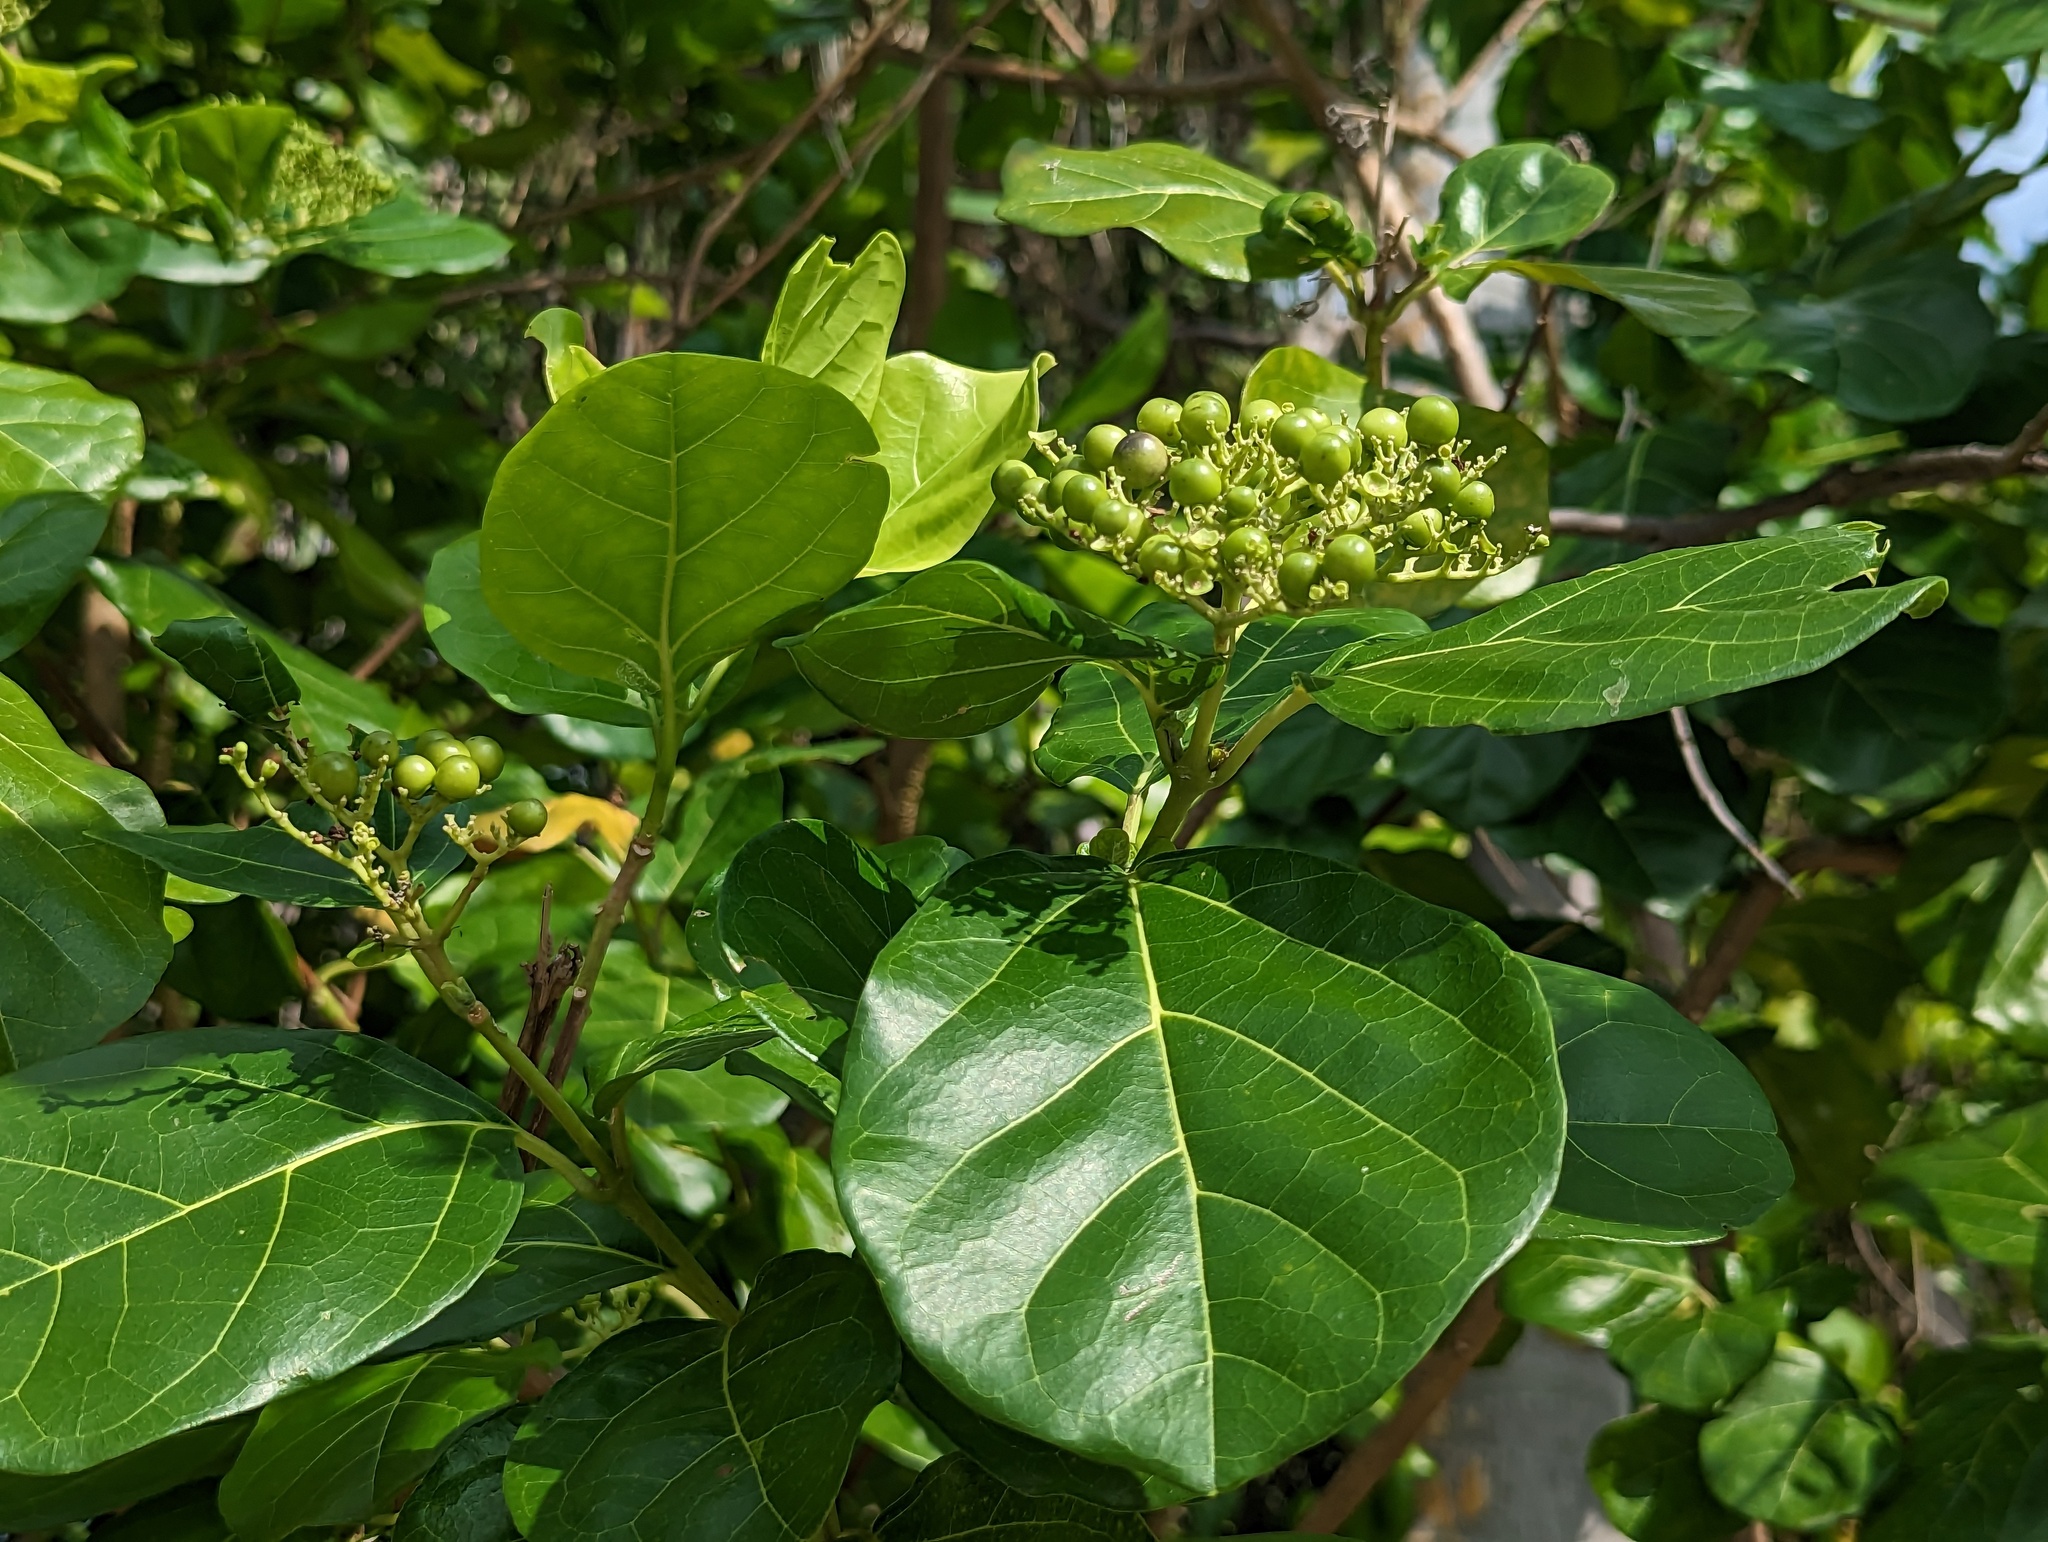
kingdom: Plantae
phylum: Tracheophyta
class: Magnoliopsida
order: Lamiales
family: Lamiaceae
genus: Premna
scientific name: Premna serratifolia
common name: Bastard guelder
